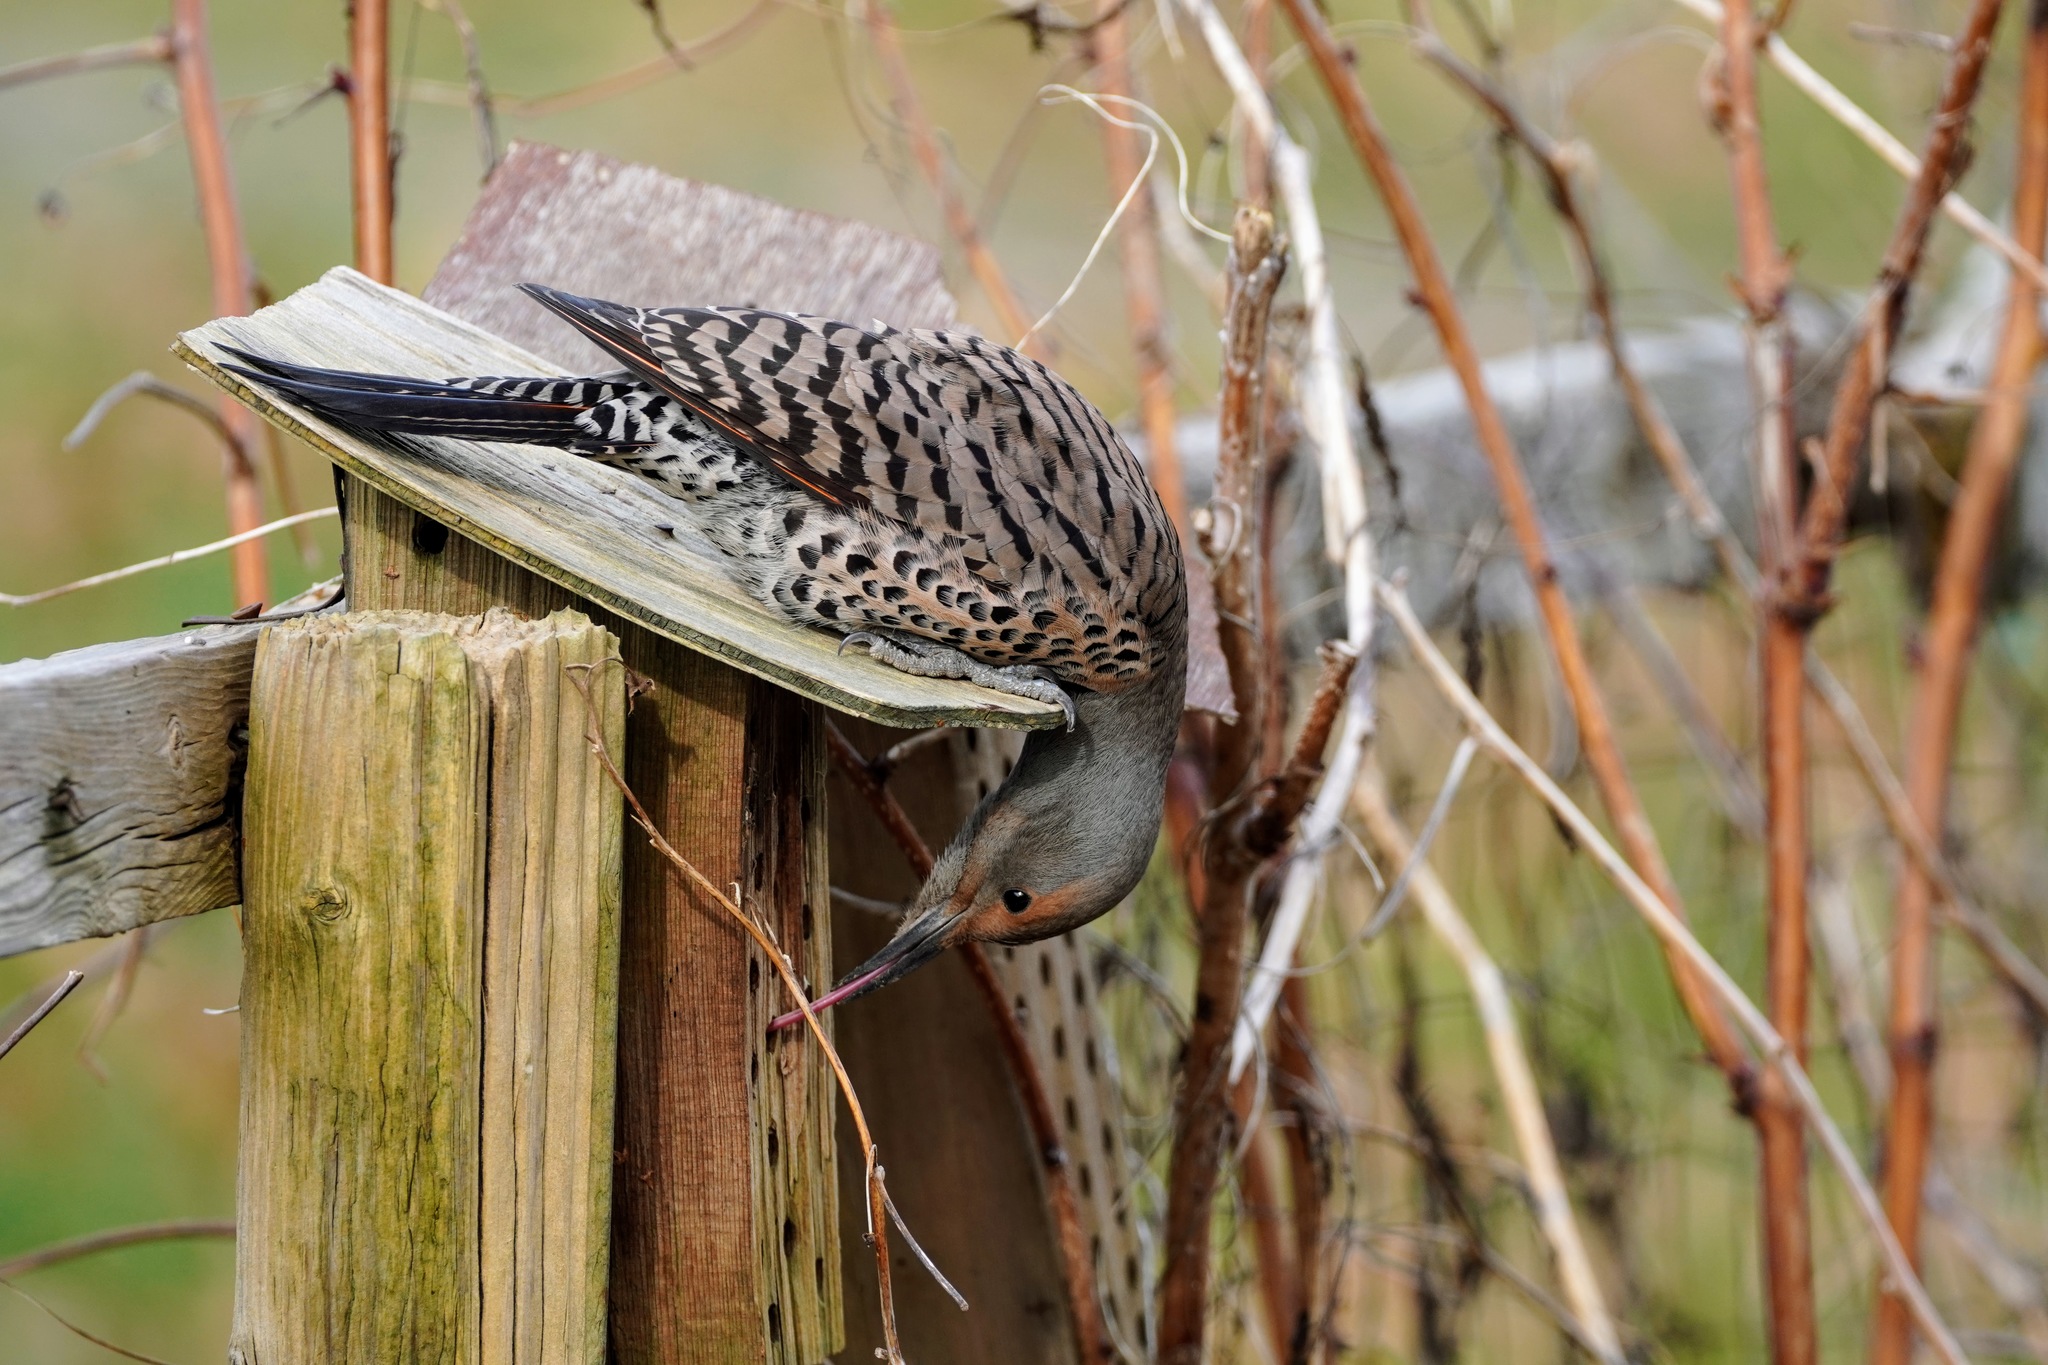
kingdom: Animalia
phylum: Chordata
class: Aves
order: Piciformes
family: Picidae
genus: Colaptes
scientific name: Colaptes auratus
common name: Northern flicker
